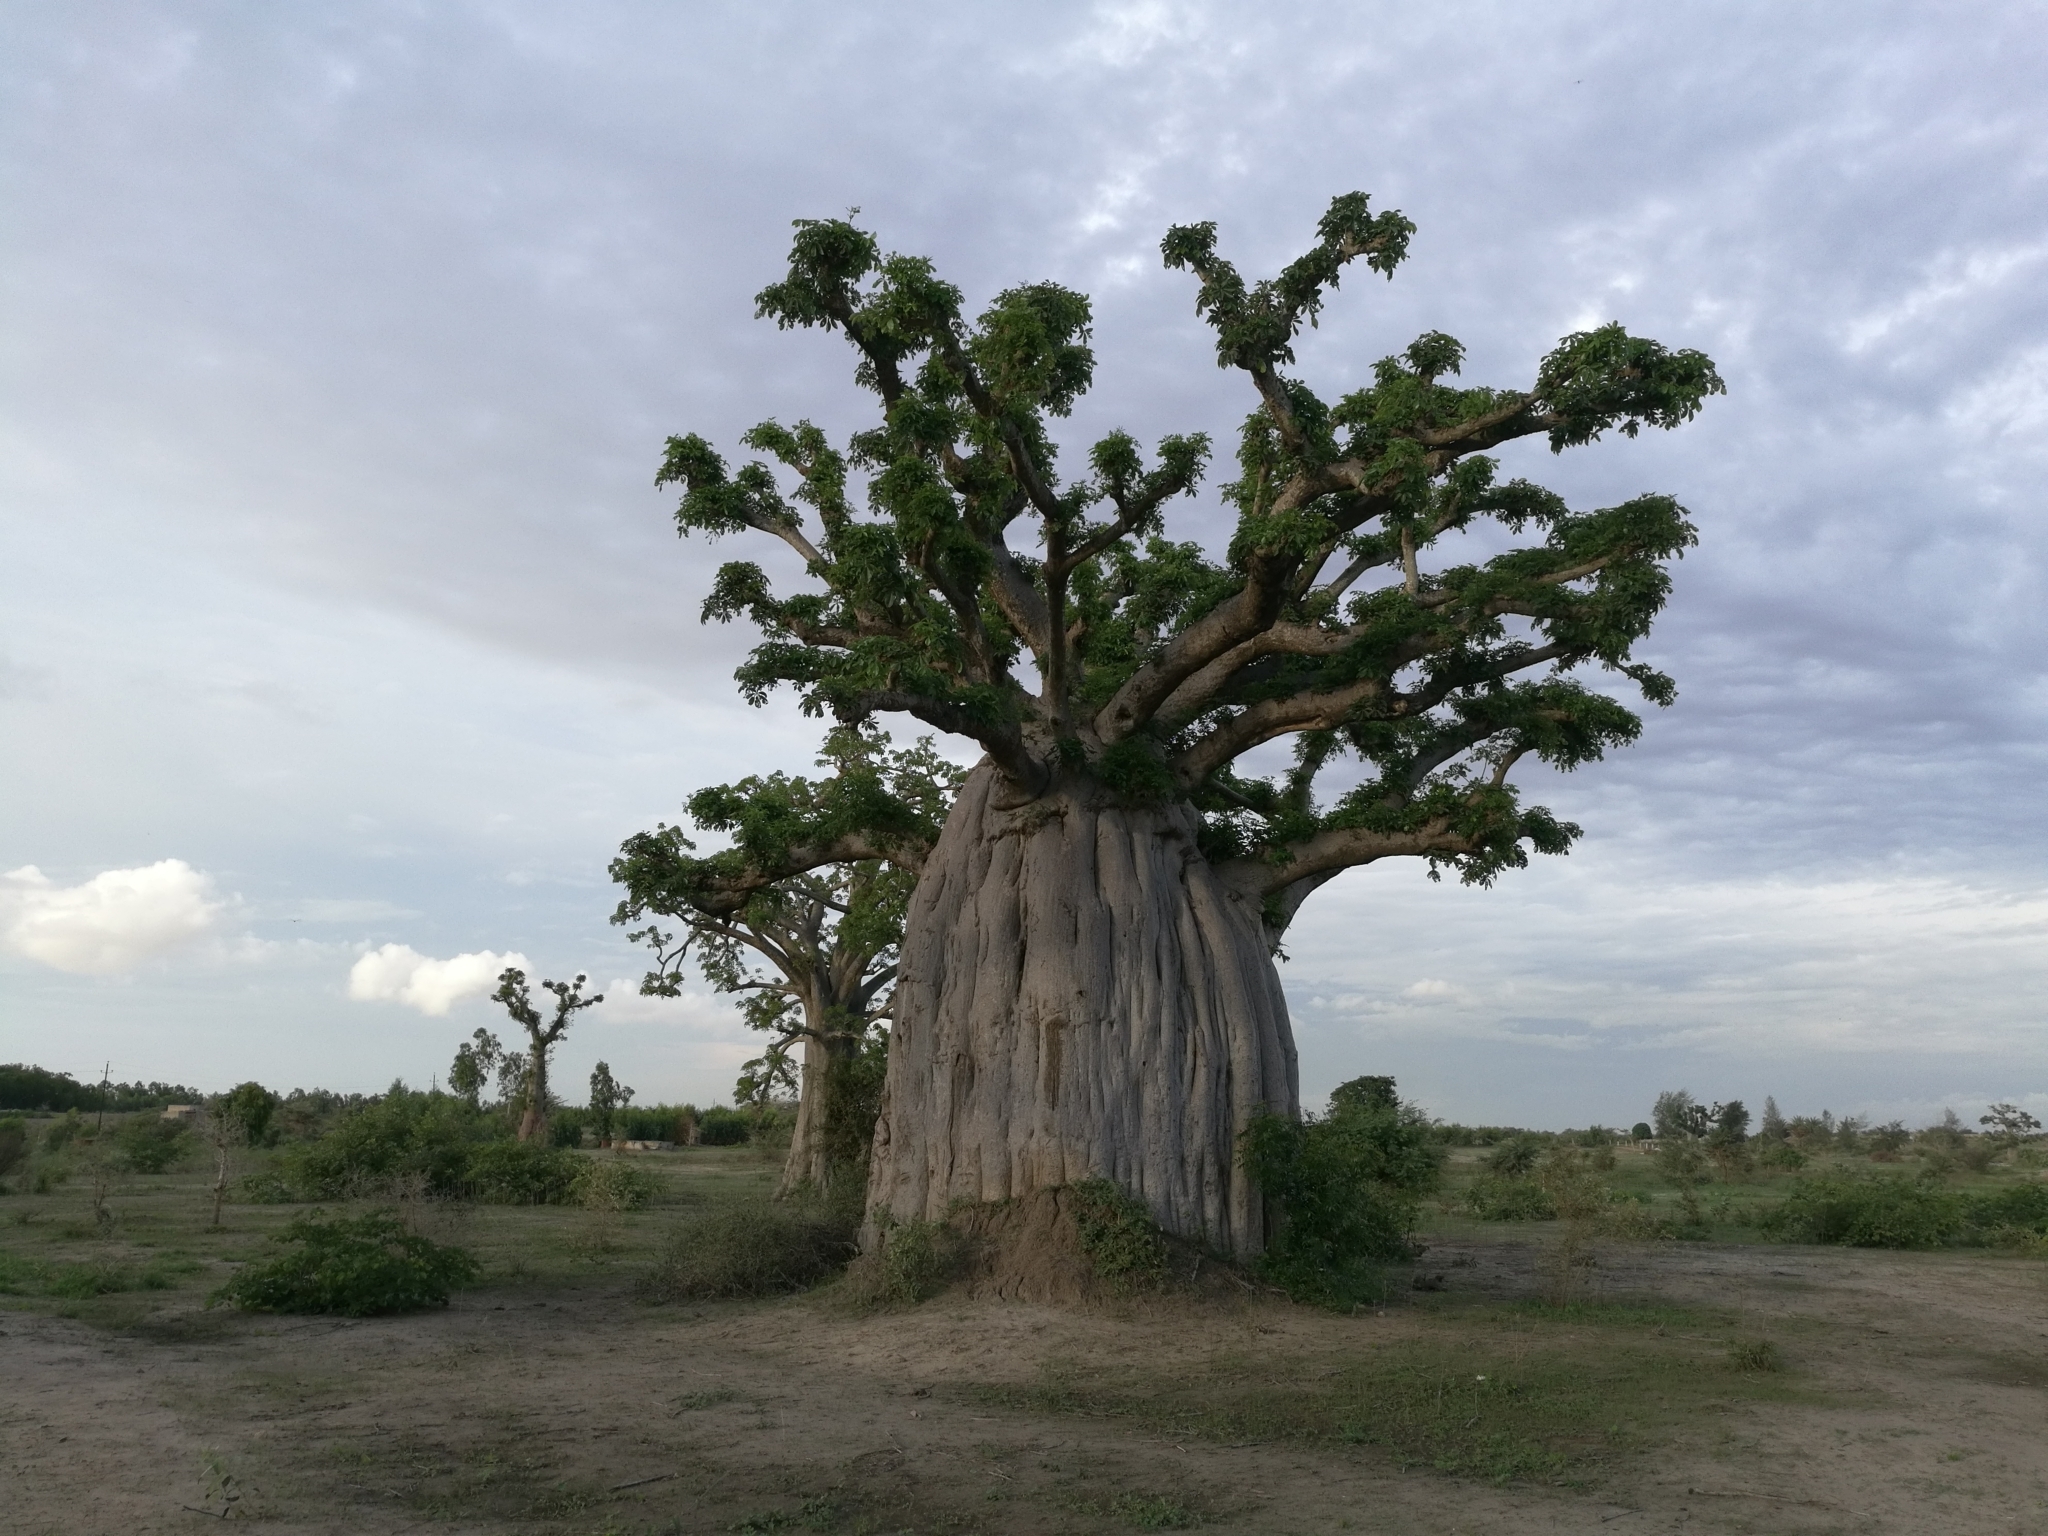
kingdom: Plantae
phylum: Tracheophyta
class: Magnoliopsida
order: Malvales
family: Malvaceae
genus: Adansonia
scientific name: Adansonia digitata
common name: Dead-rat-tree
